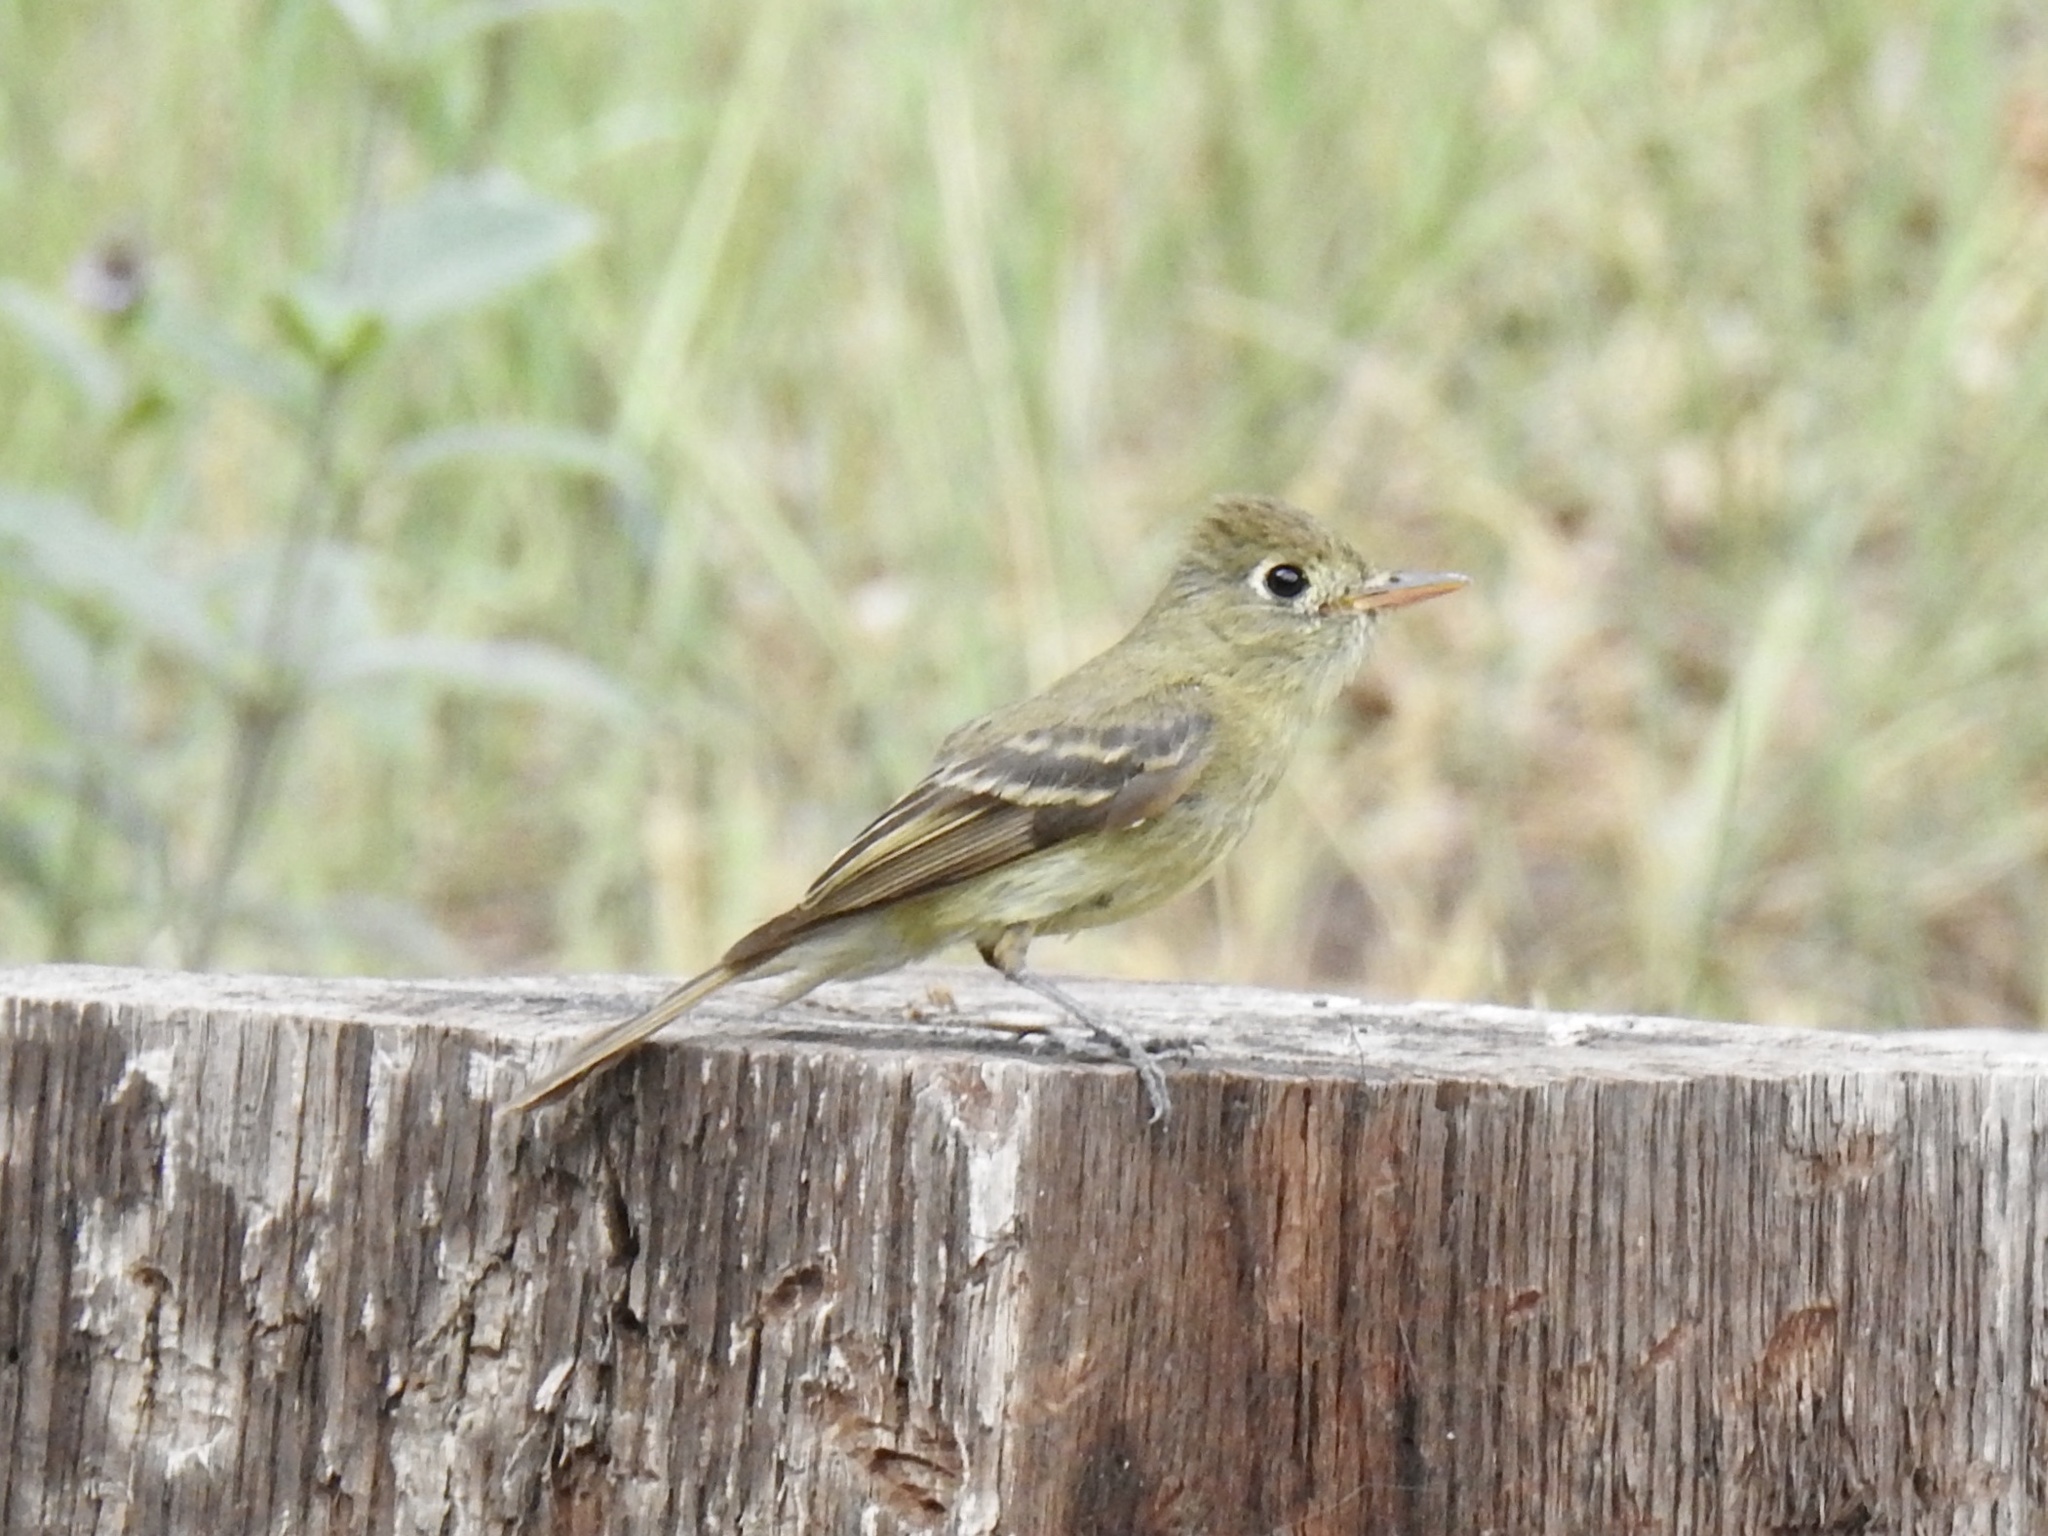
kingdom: Animalia
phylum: Chordata
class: Aves
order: Passeriformes
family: Tyrannidae
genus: Empidonax
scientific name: Empidonax difficilis
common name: Pacific-slope flycatcher
